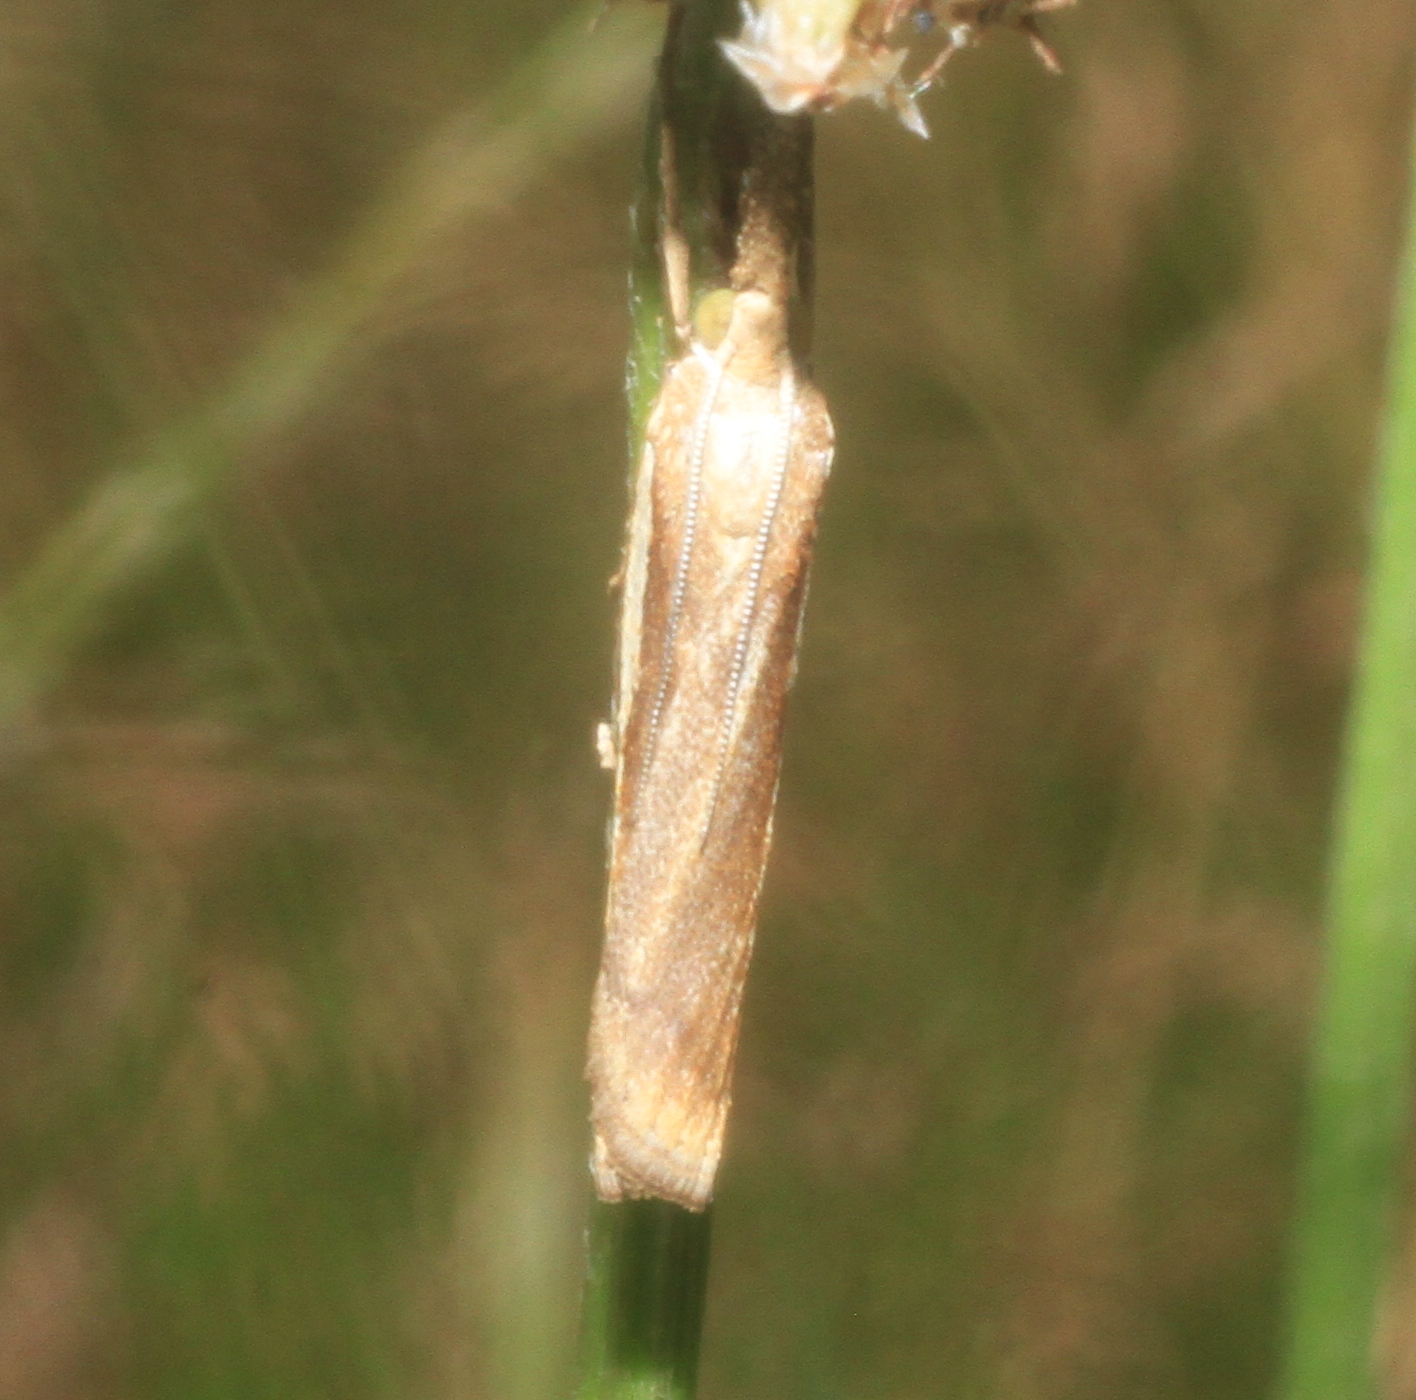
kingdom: Animalia
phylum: Arthropoda
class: Insecta
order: Lepidoptera
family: Crambidae
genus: Agriphila
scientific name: Agriphila tristellus
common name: Common grass-veneer
